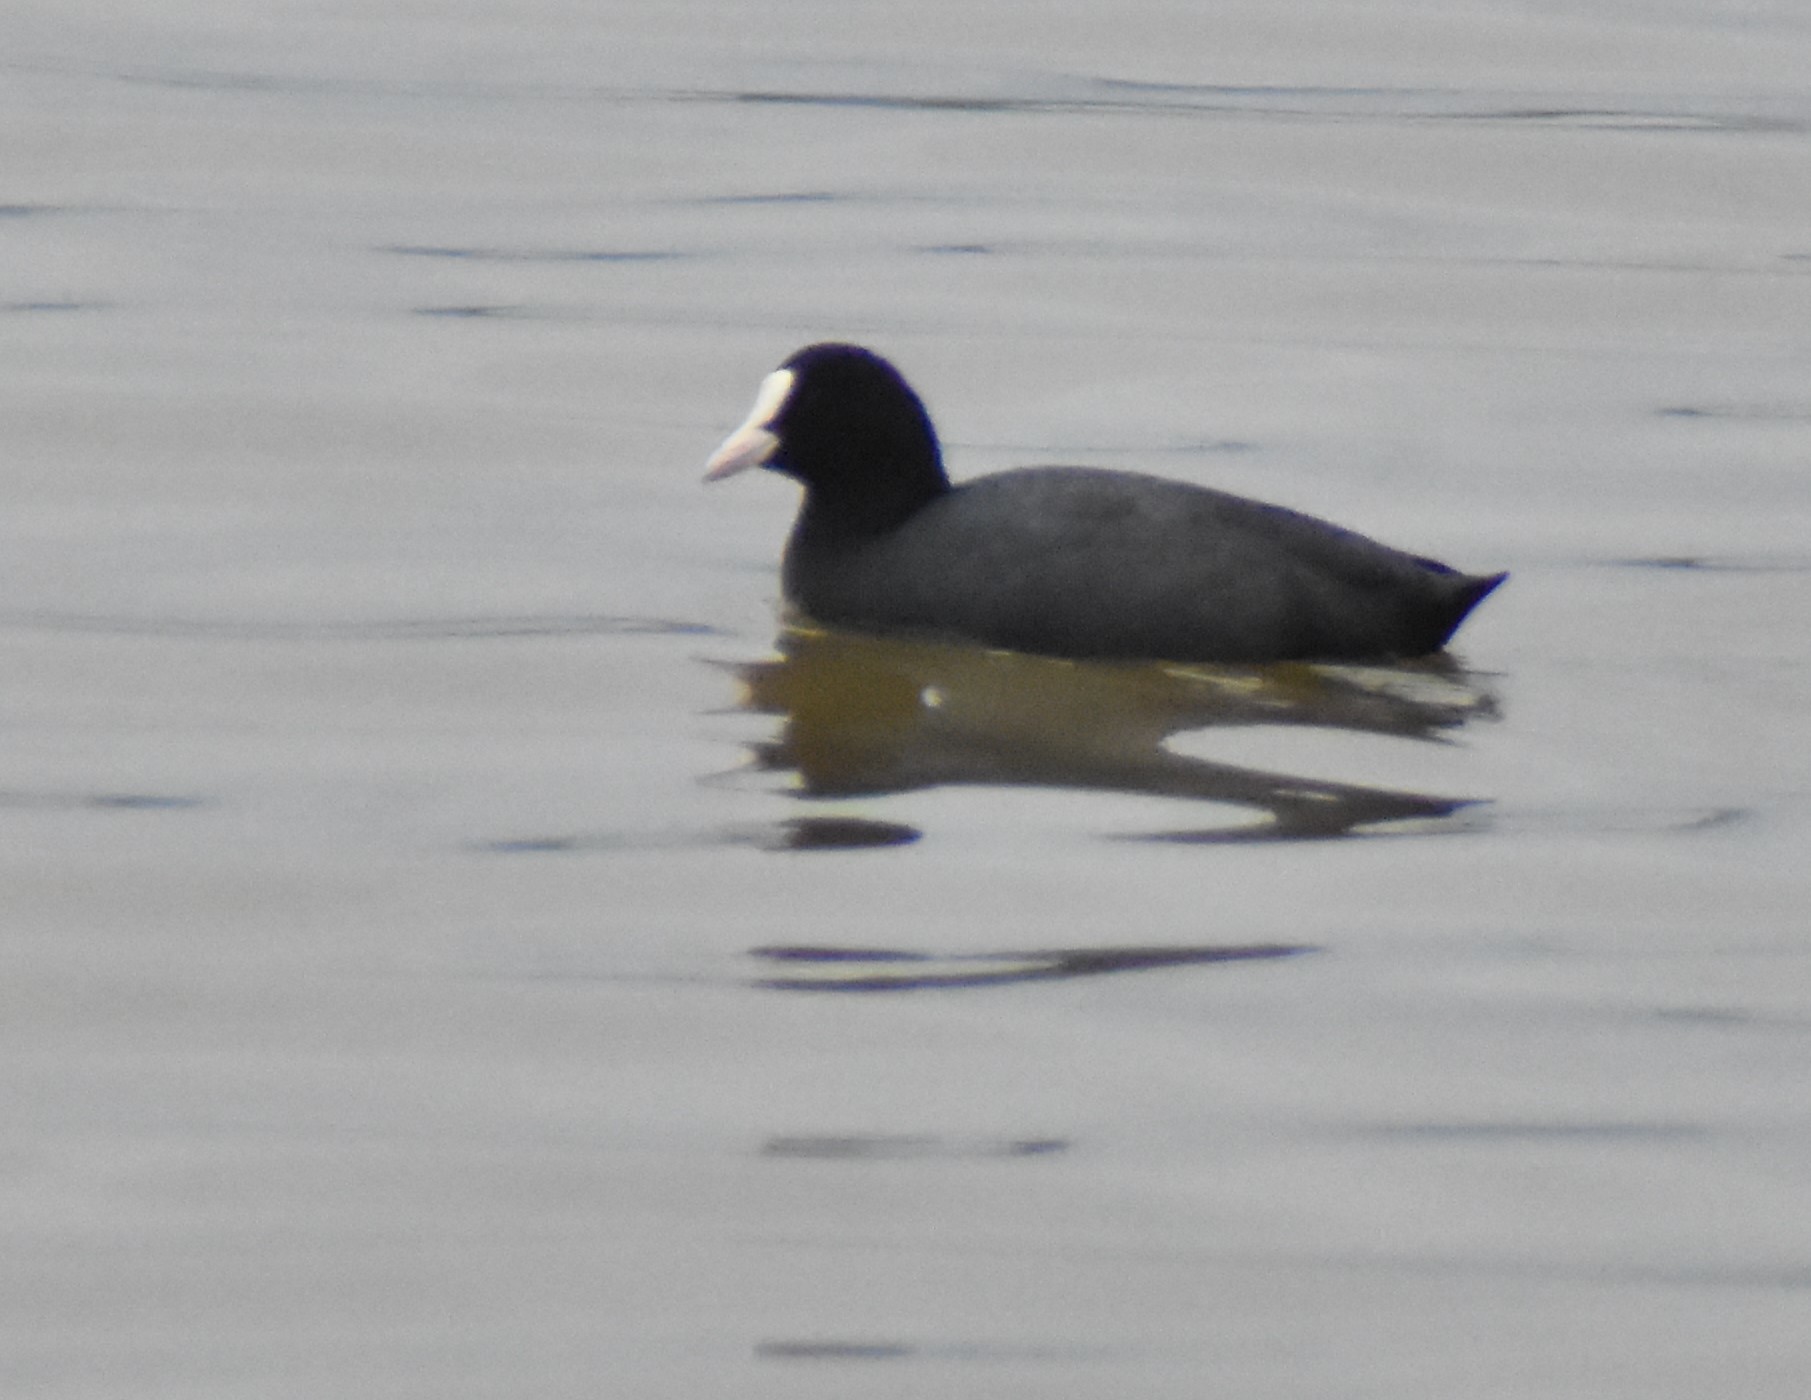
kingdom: Animalia
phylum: Chordata
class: Aves
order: Gruiformes
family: Rallidae
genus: Fulica
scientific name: Fulica atra
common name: Eurasian coot
